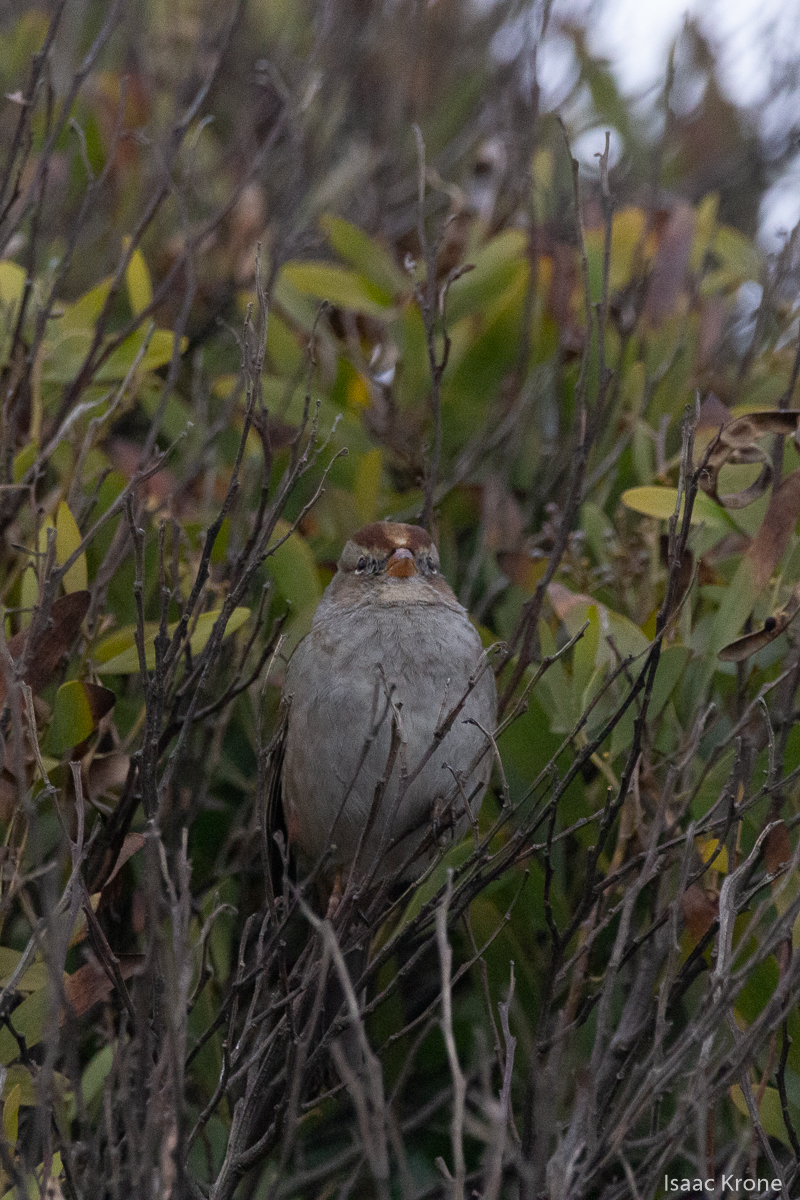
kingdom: Animalia
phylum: Chordata
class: Aves
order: Passeriformes
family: Passerellidae
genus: Zonotrichia
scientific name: Zonotrichia leucophrys
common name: White-crowned sparrow
